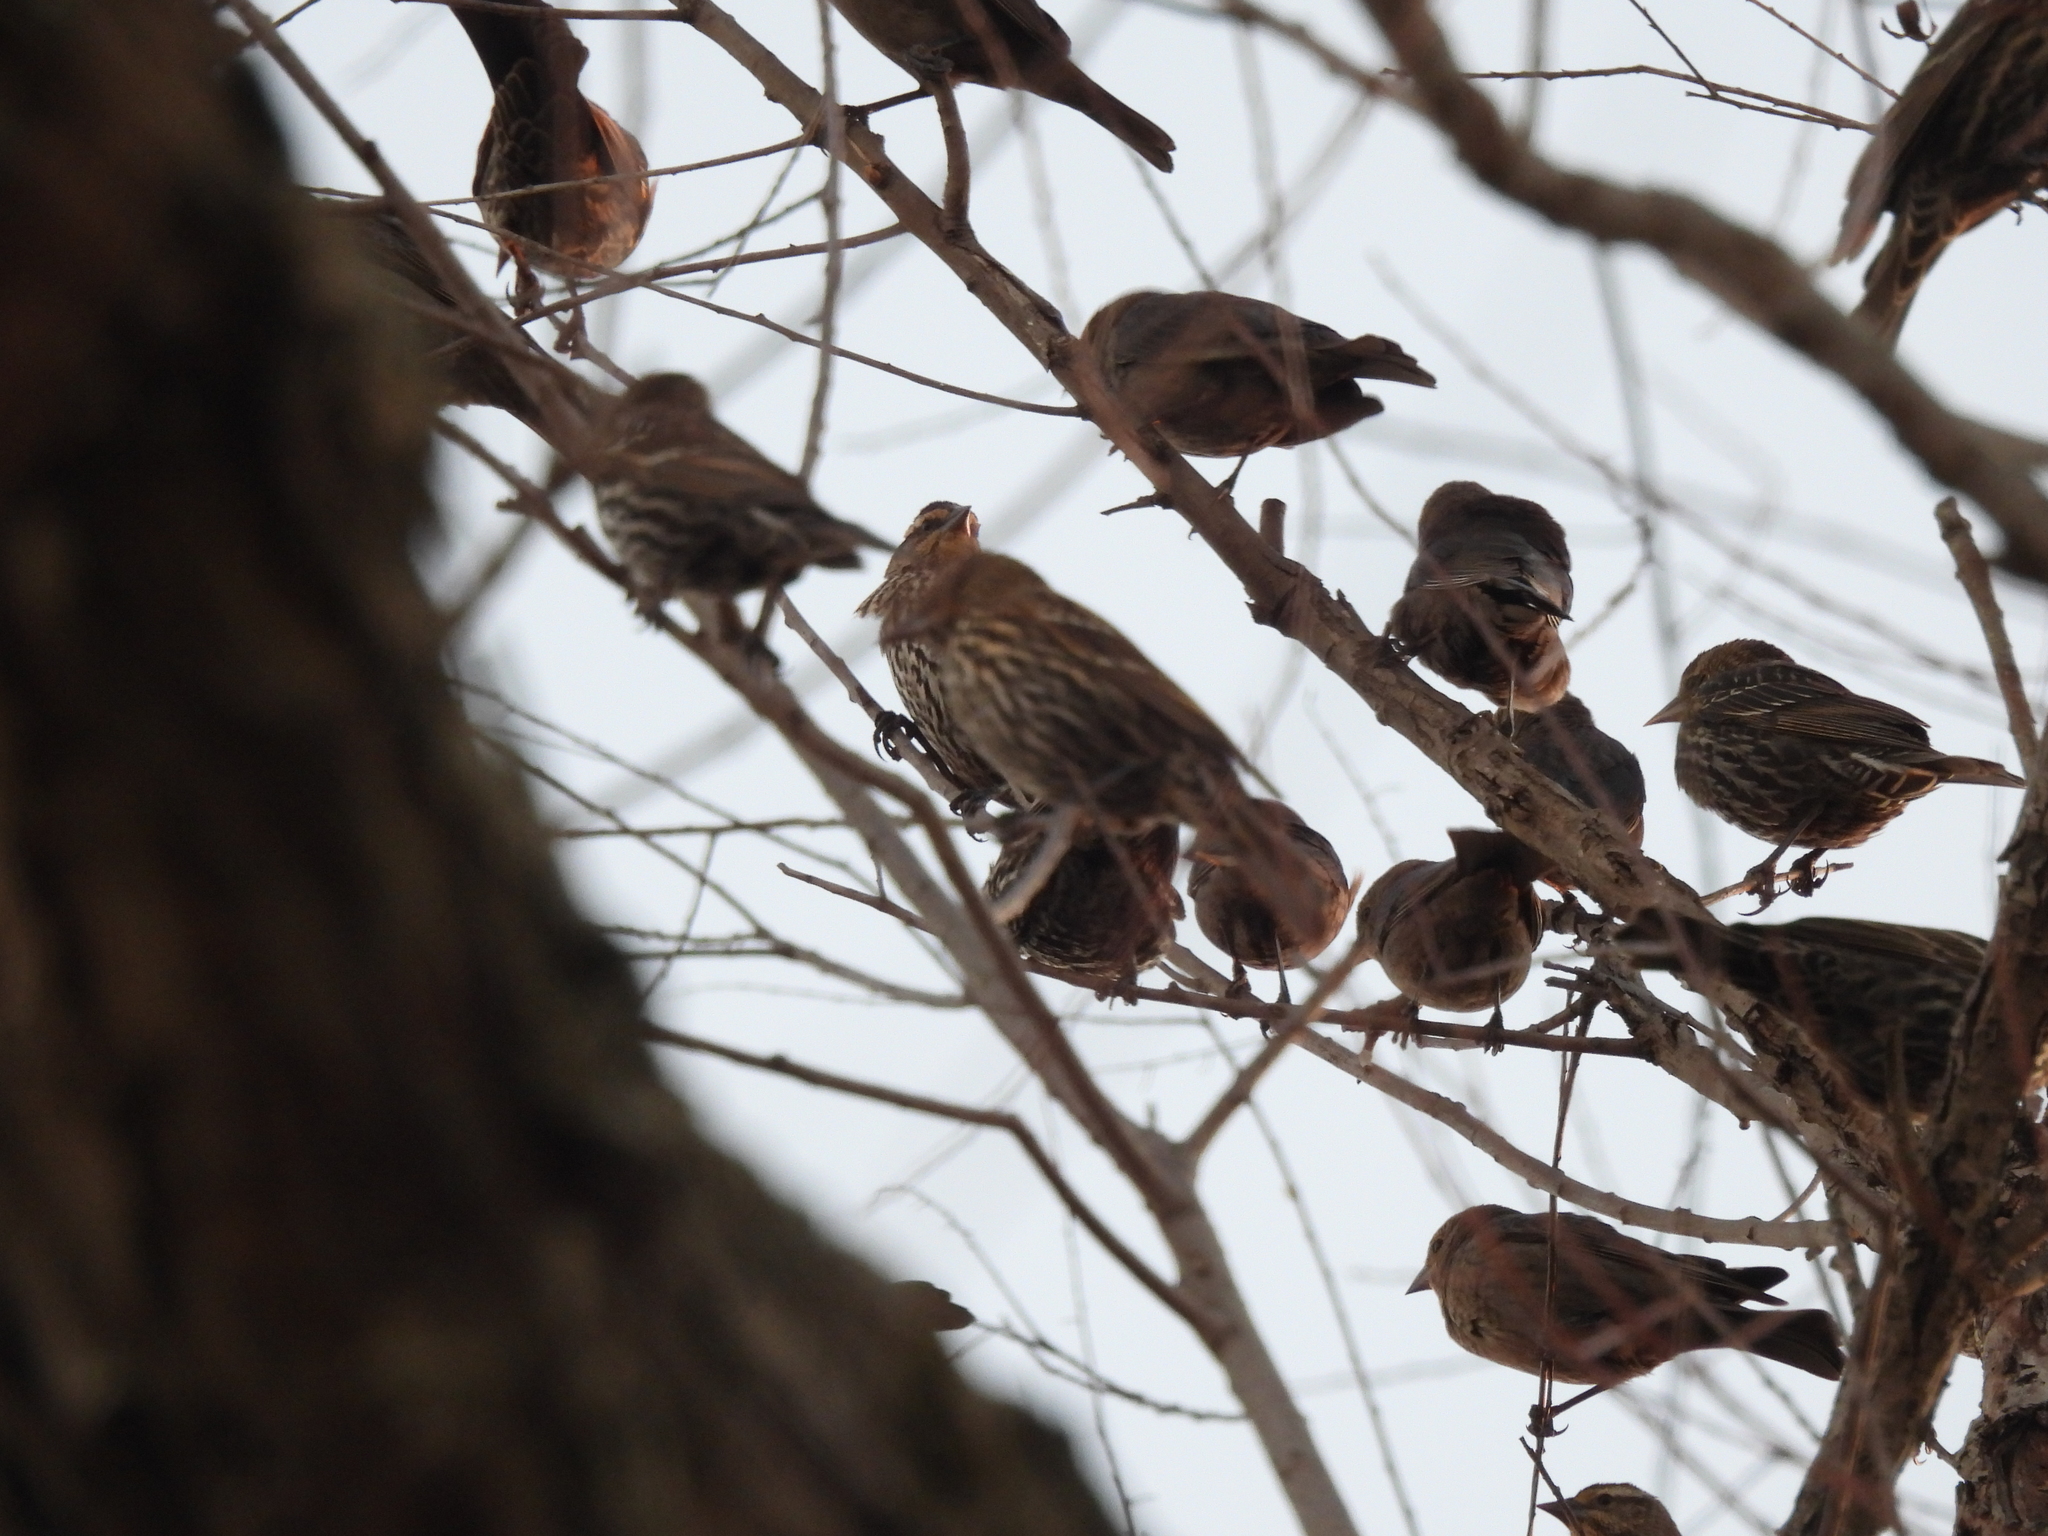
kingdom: Animalia
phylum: Chordata
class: Aves
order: Passeriformes
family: Icteridae
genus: Agelaius
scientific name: Agelaius phoeniceus
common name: Red-winged blackbird
